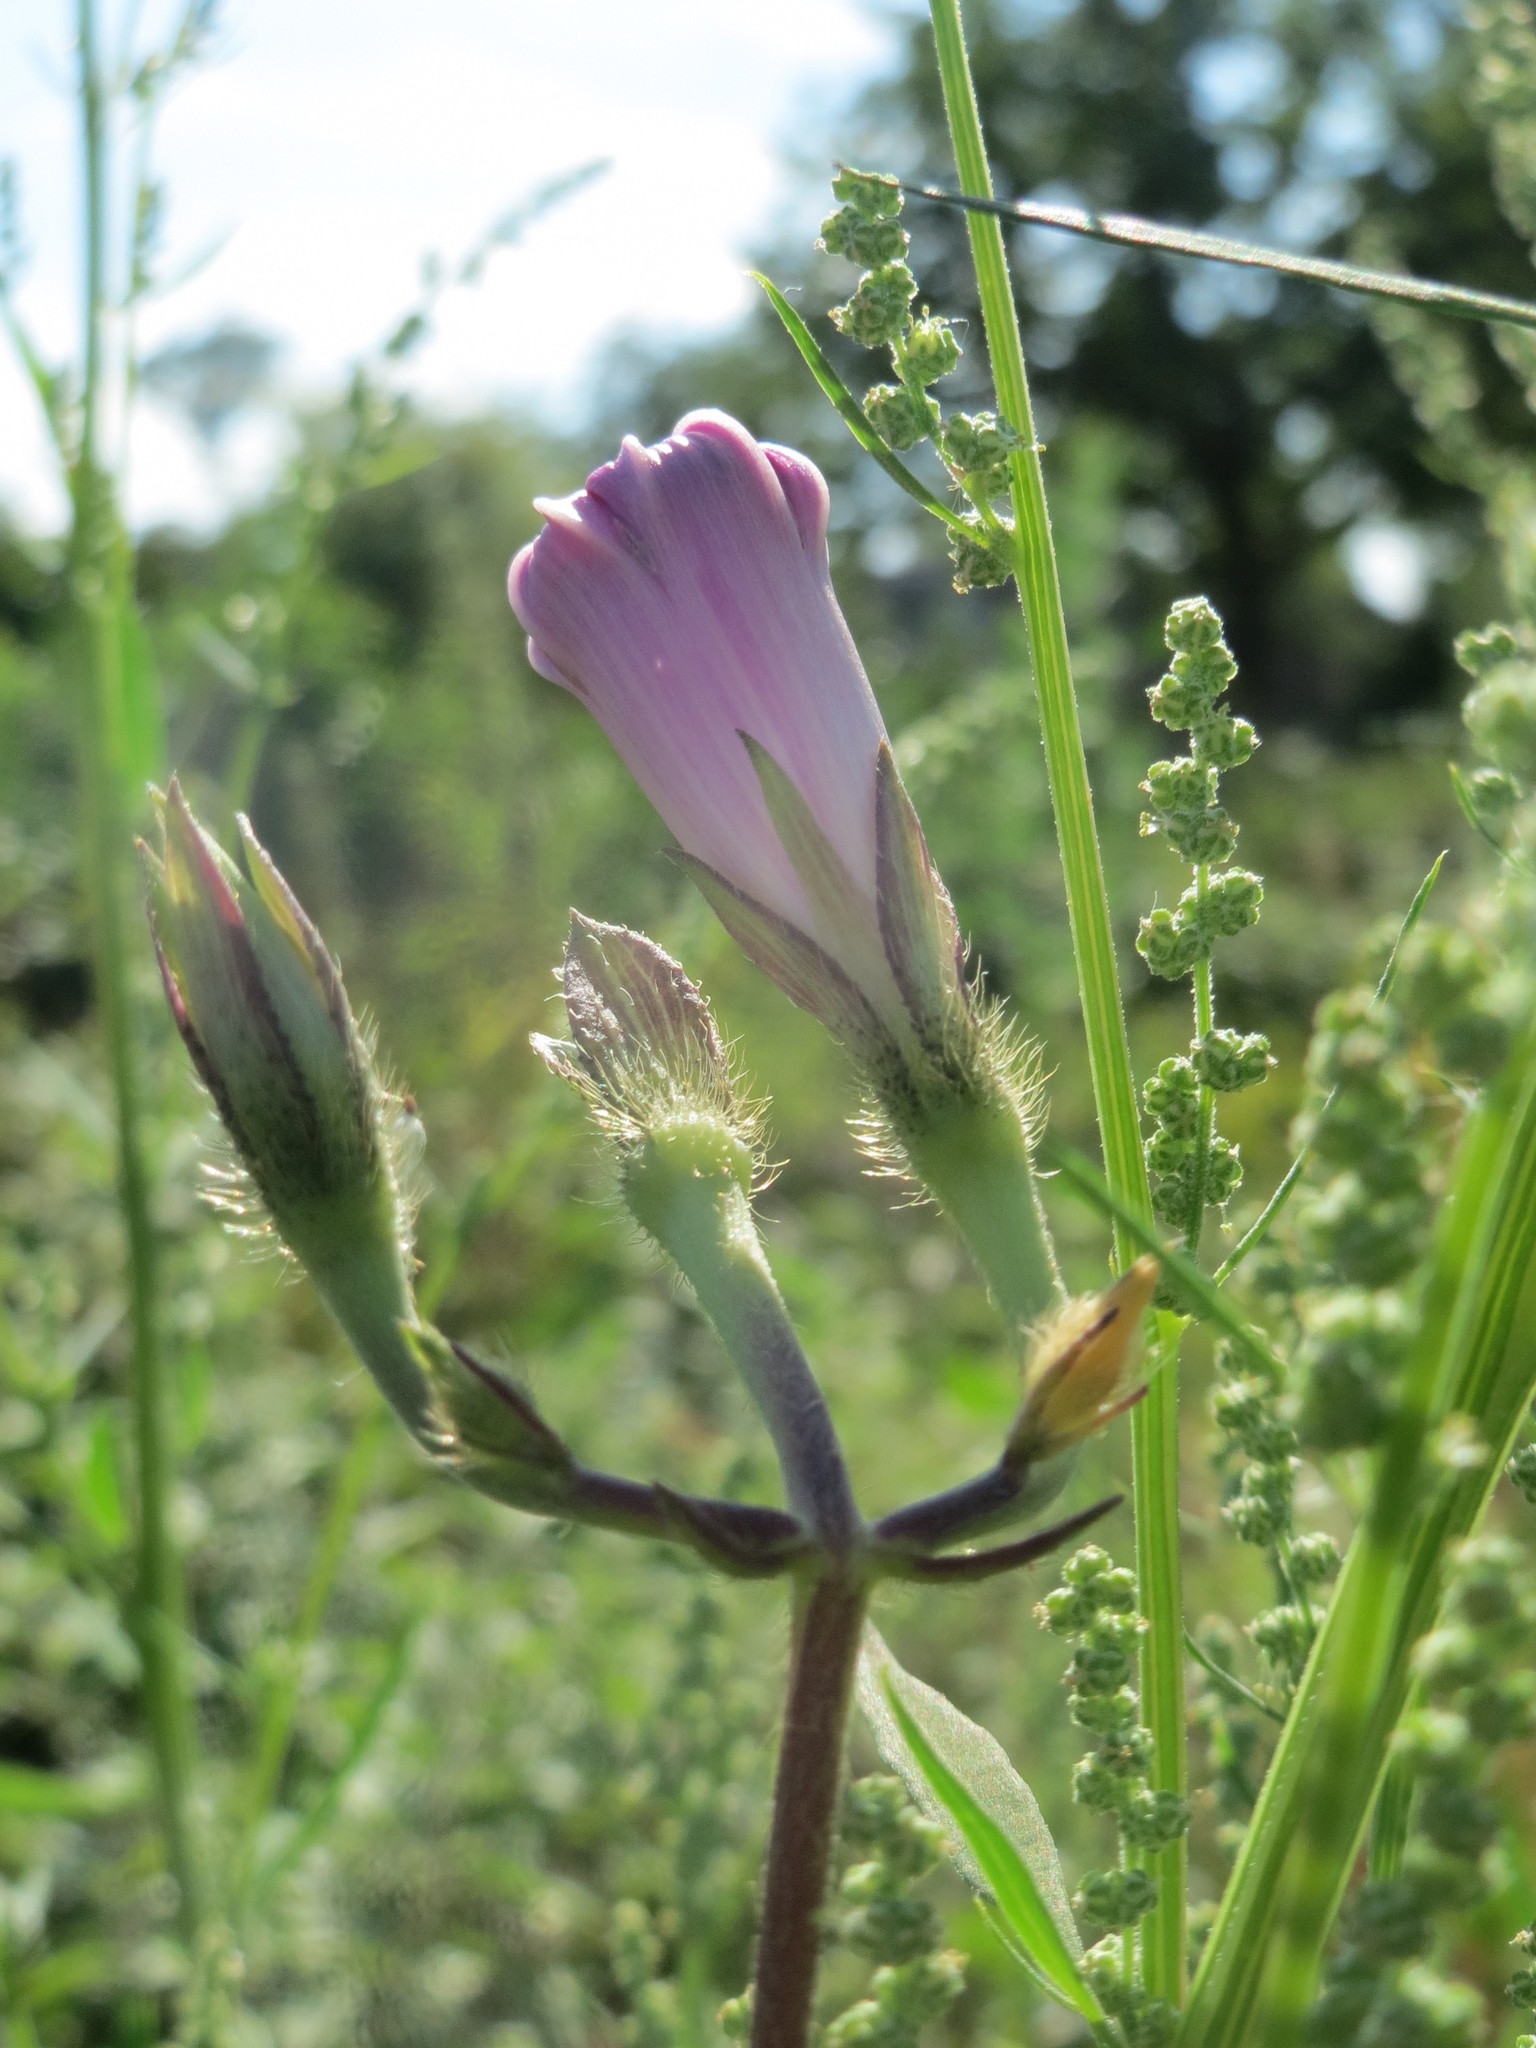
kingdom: Plantae
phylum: Tracheophyta
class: Magnoliopsida
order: Solanales
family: Convolvulaceae
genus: Ipomoea
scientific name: Ipomoea purpurea
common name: Common morning-glory
